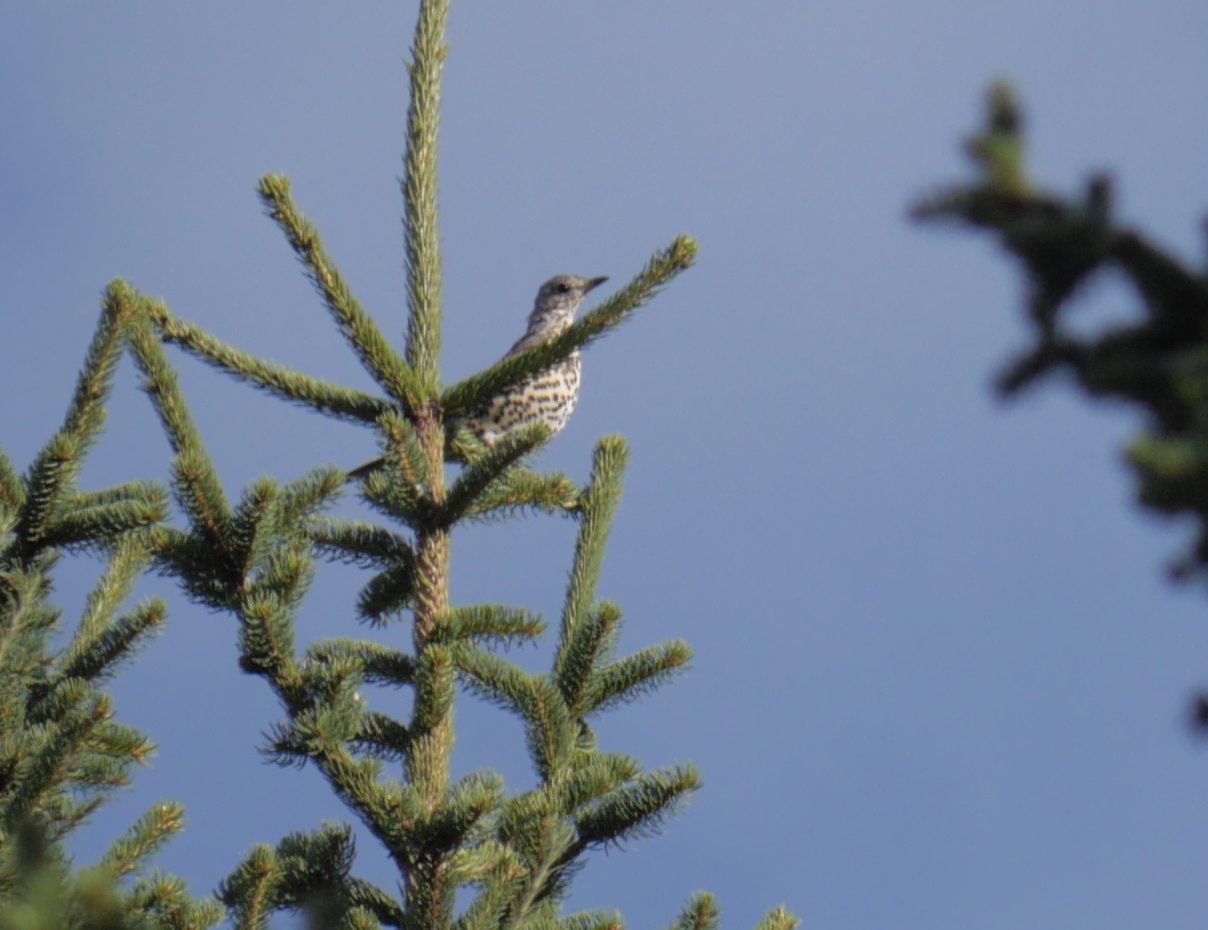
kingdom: Animalia
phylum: Chordata
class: Aves
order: Passeriformes
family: Turdidae
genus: Turdus
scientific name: Turdus viscivorus
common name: Mistle thrush
